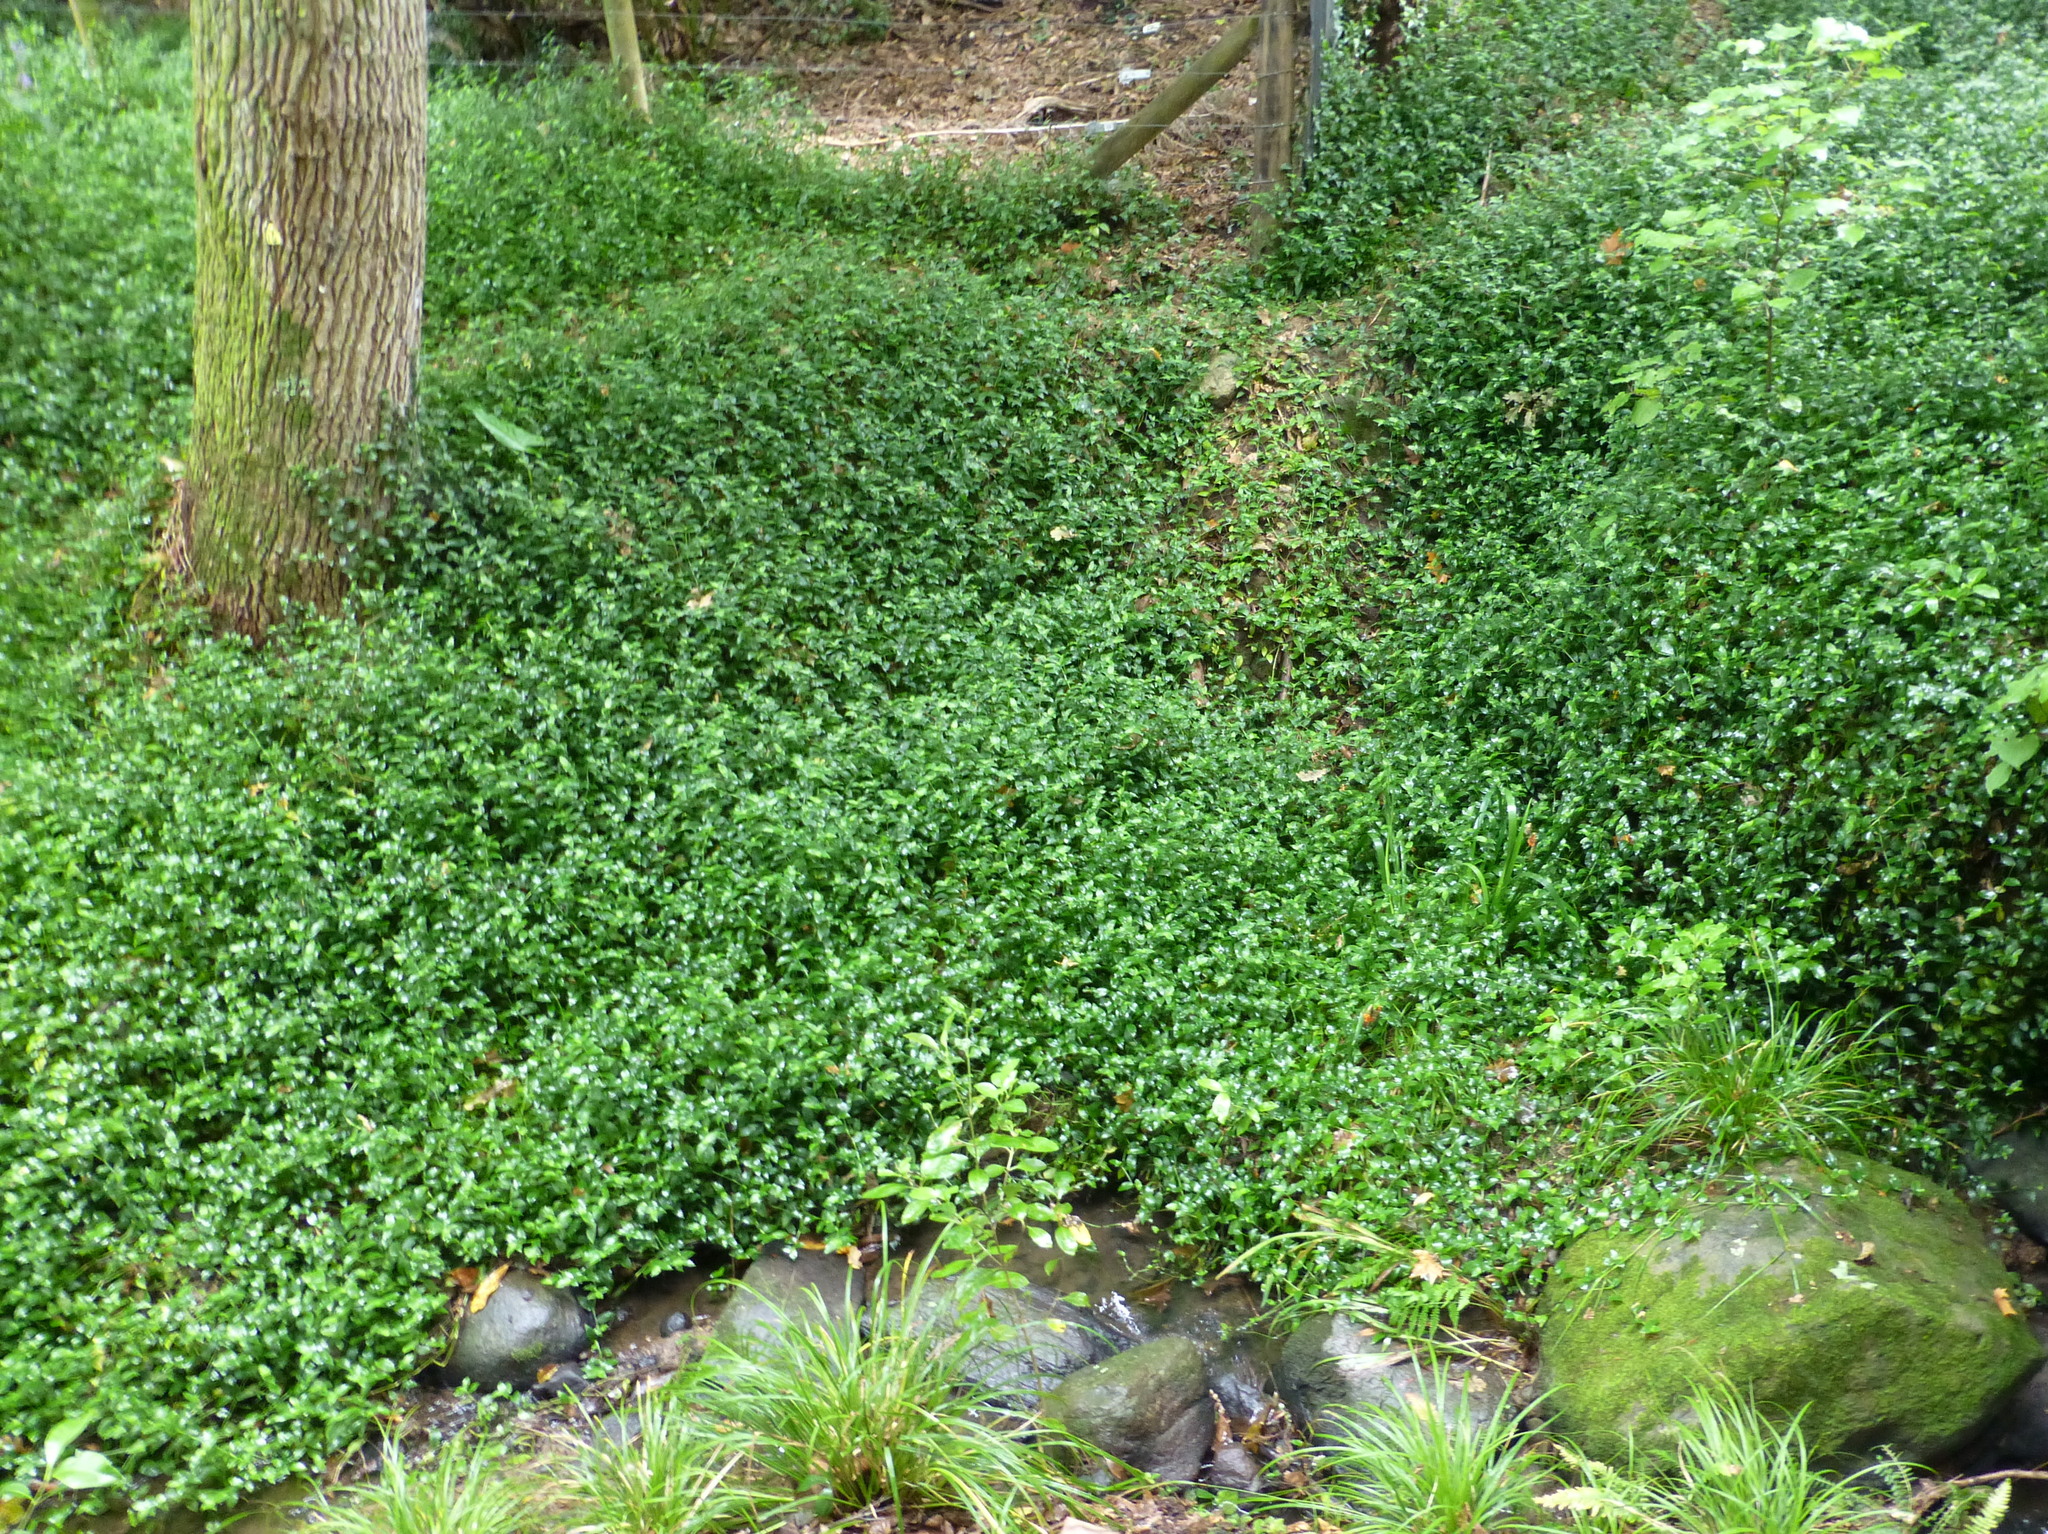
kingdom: Plantae
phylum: Tracheophyta
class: Liliopsida
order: Commelinales
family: Commelinaceae
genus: Tradescantia
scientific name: Tradescantia fluminensis
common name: Wandering-jew
